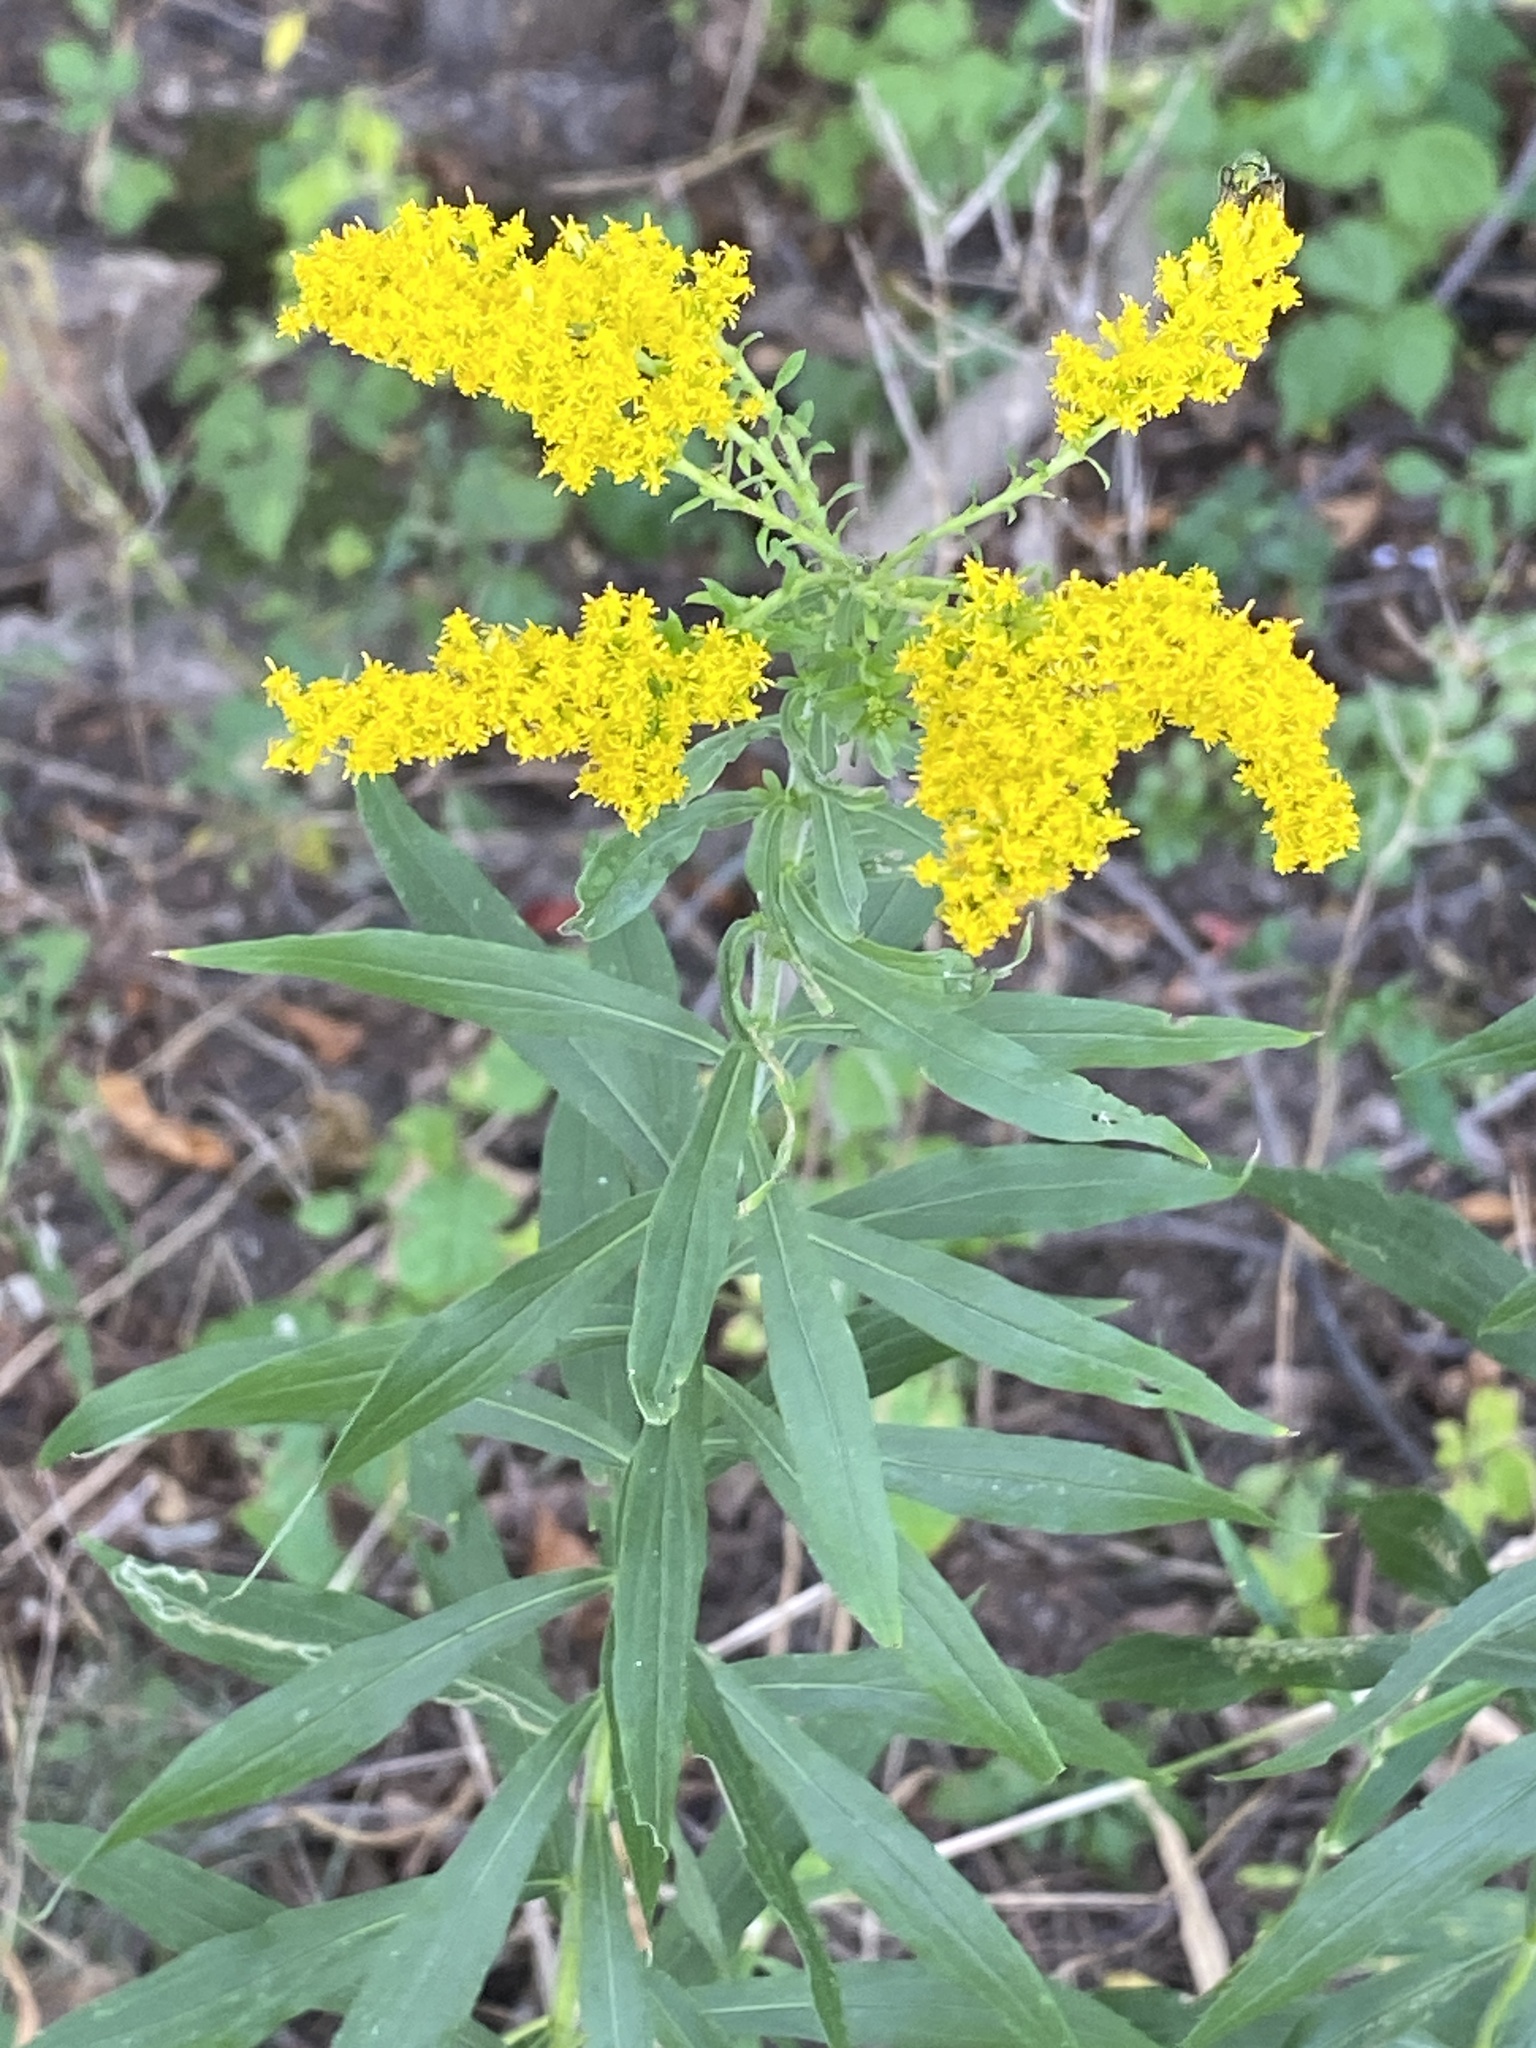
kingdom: Plantae
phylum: Tracheophyta
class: Magnoliopsida
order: Asterales
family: Asteraceae
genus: Solidago
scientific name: Solidago altissima
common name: Late goldenrod
